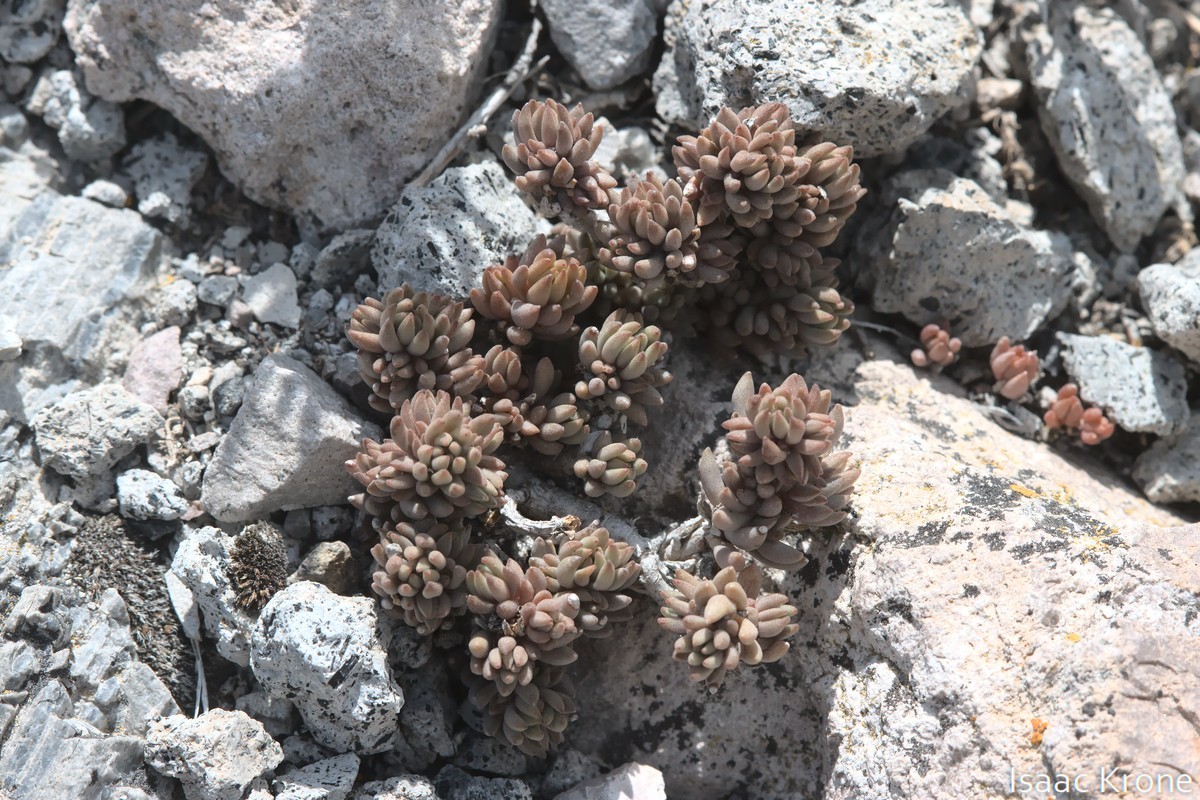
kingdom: Plantae
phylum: Tracheophyta
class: Magnoliopsida
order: Saxifragales
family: Crassulaceae
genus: Sedum
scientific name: Sedum lanceolatum
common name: Common stonecrop
